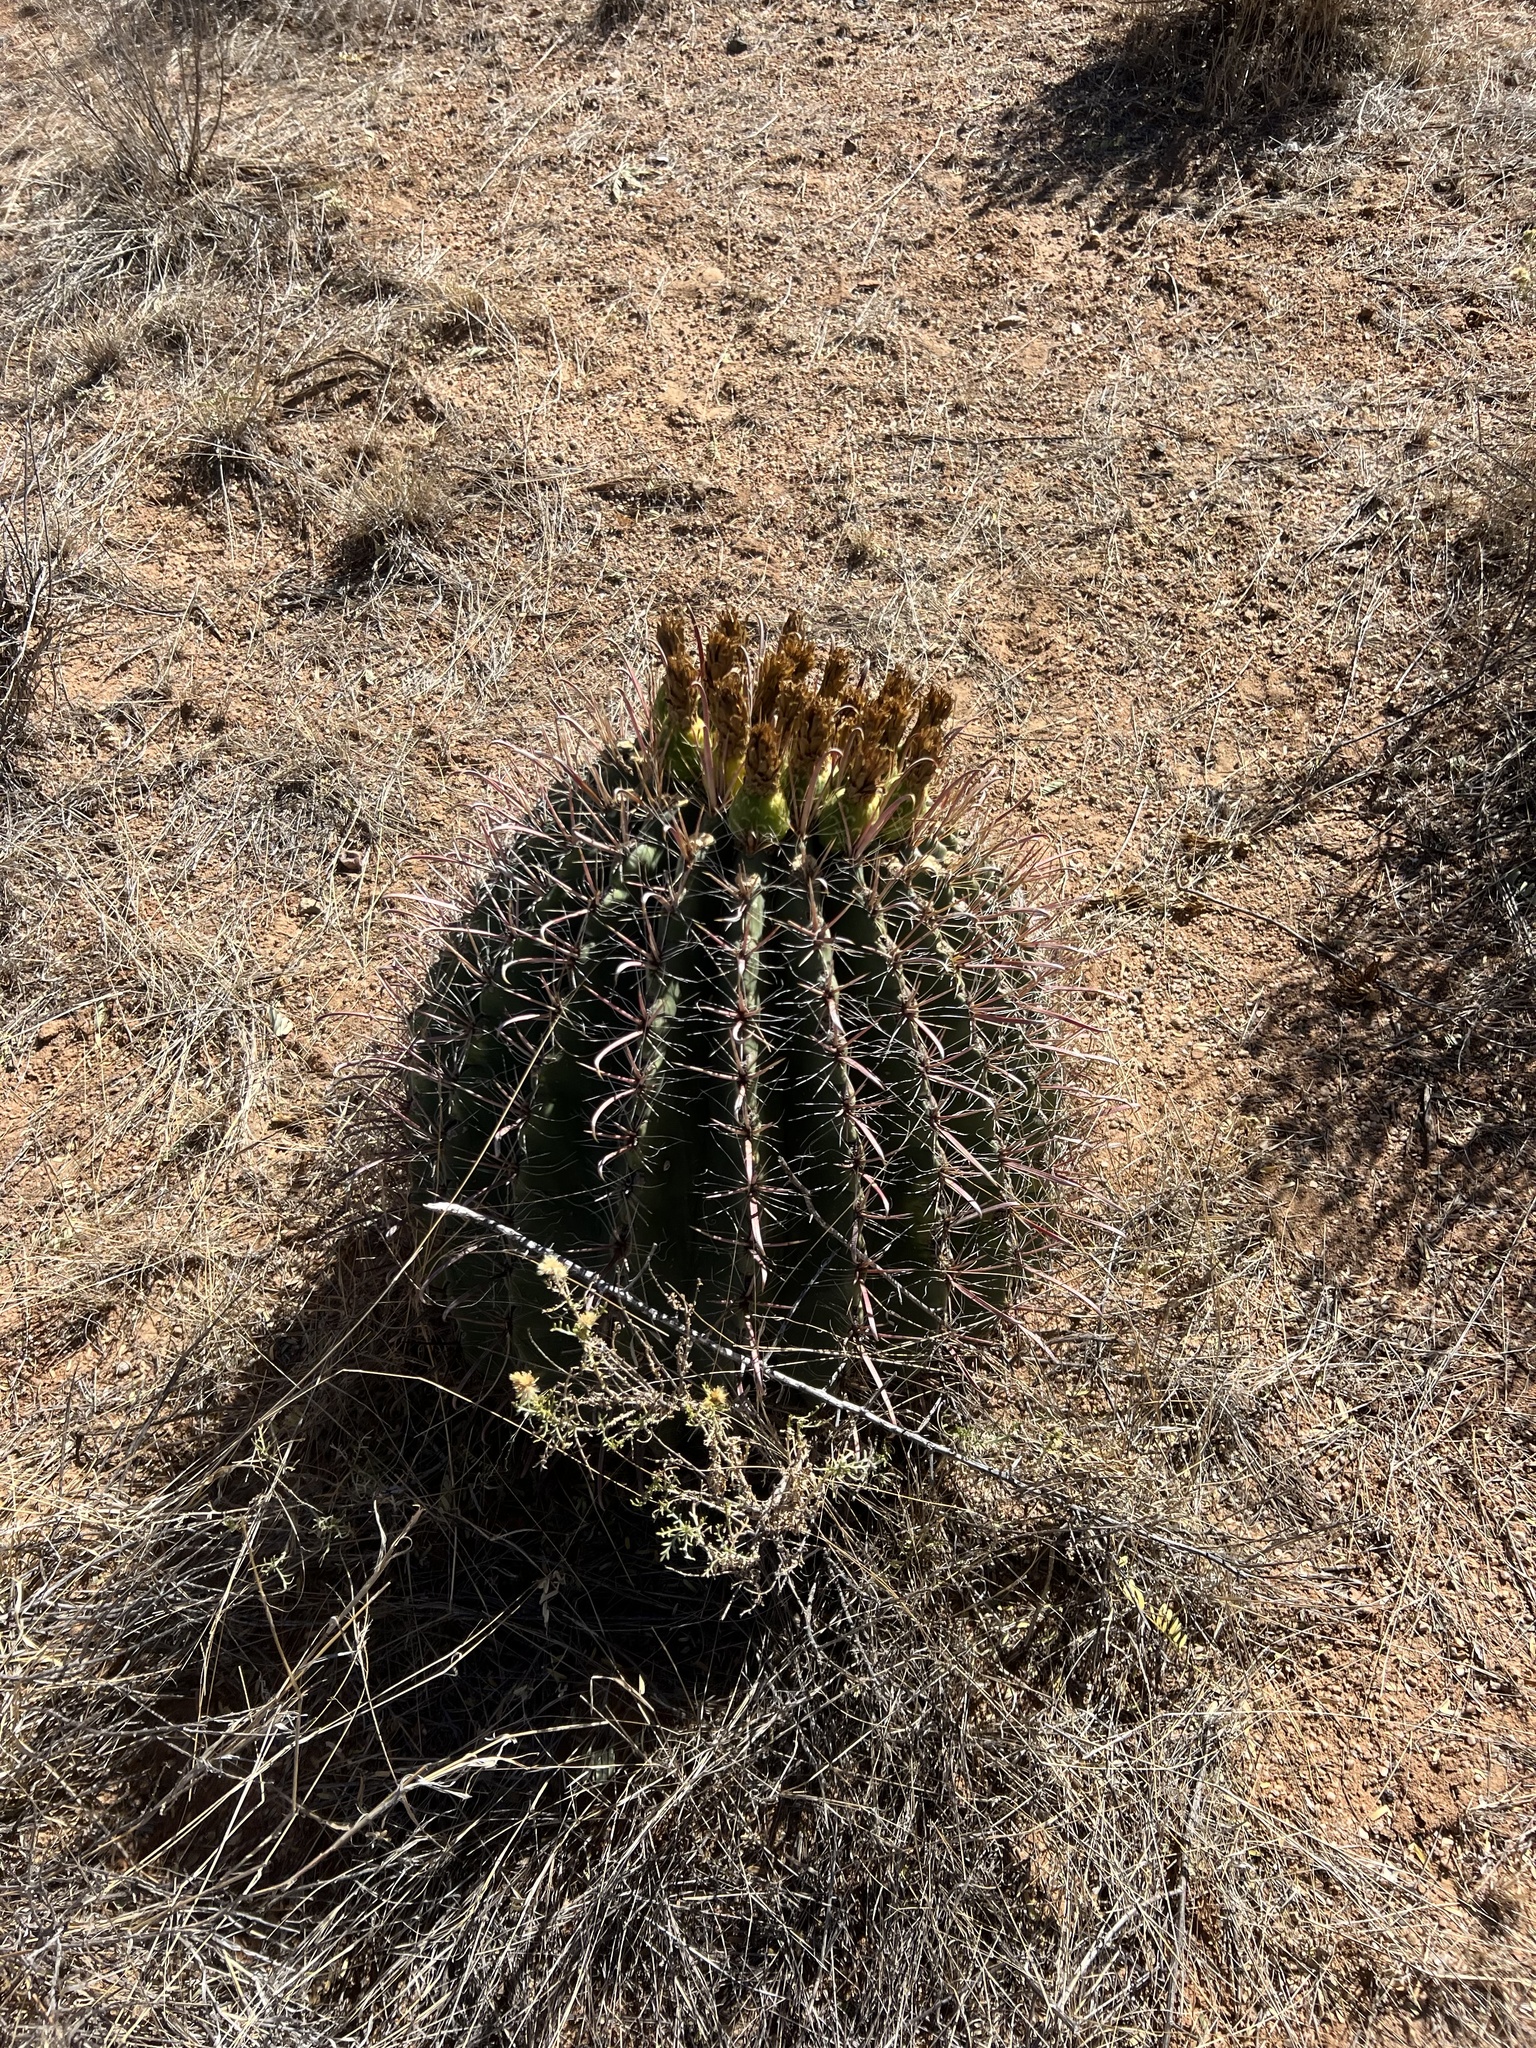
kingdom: Plantae
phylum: Tracheophyta
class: Magnoliopsida
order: Caryophyllales
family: Cactaceae
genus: Ferocactus
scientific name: Ferocactus wislizeni
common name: Candy barrel cactus
